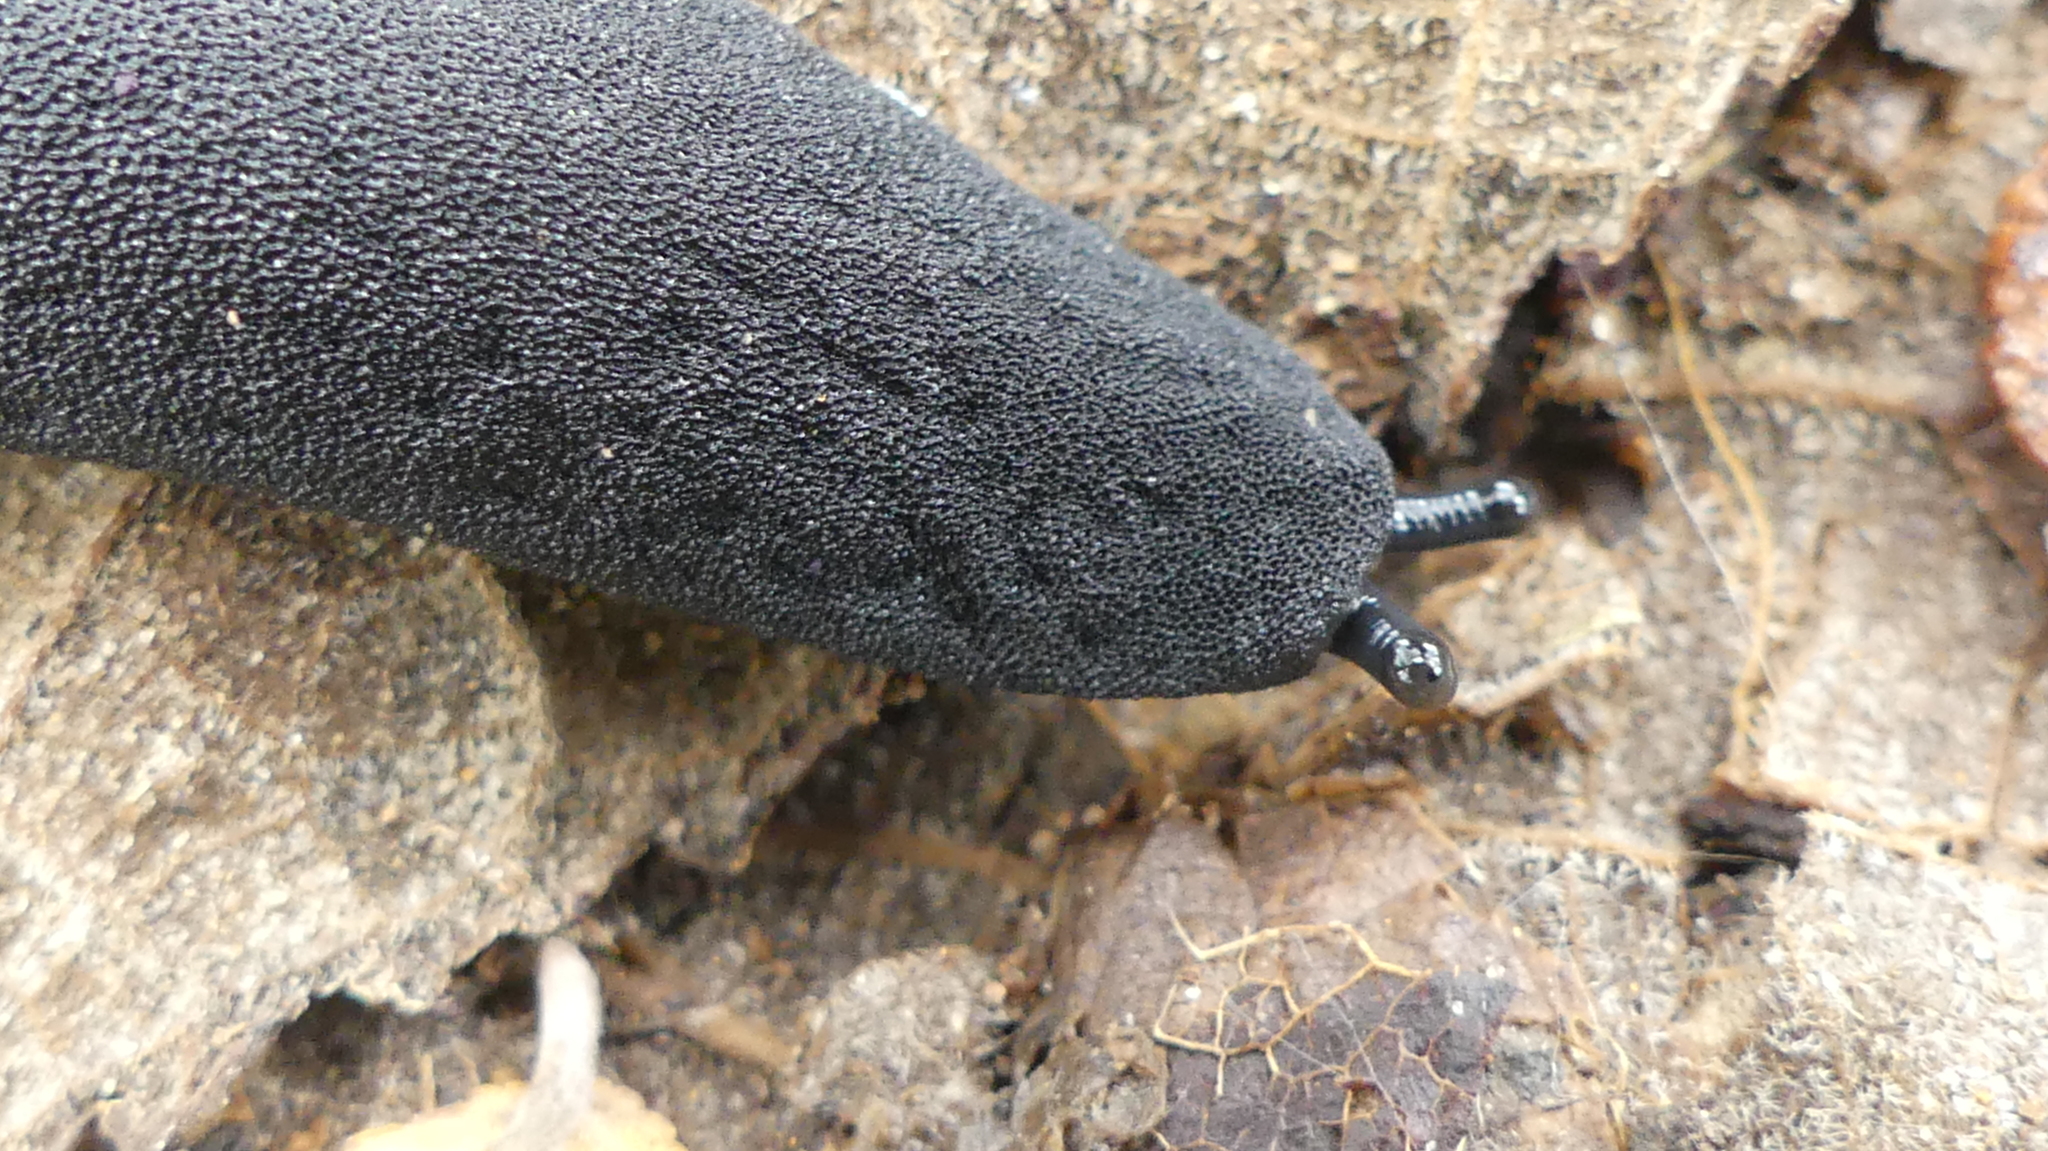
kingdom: Animalia
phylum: Mollusca
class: Gastropoda
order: Systellommatophora
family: Veronicellidae
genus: Belocaulus
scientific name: Belocaulus angustipes
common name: Black velvet leatherleaf slug
